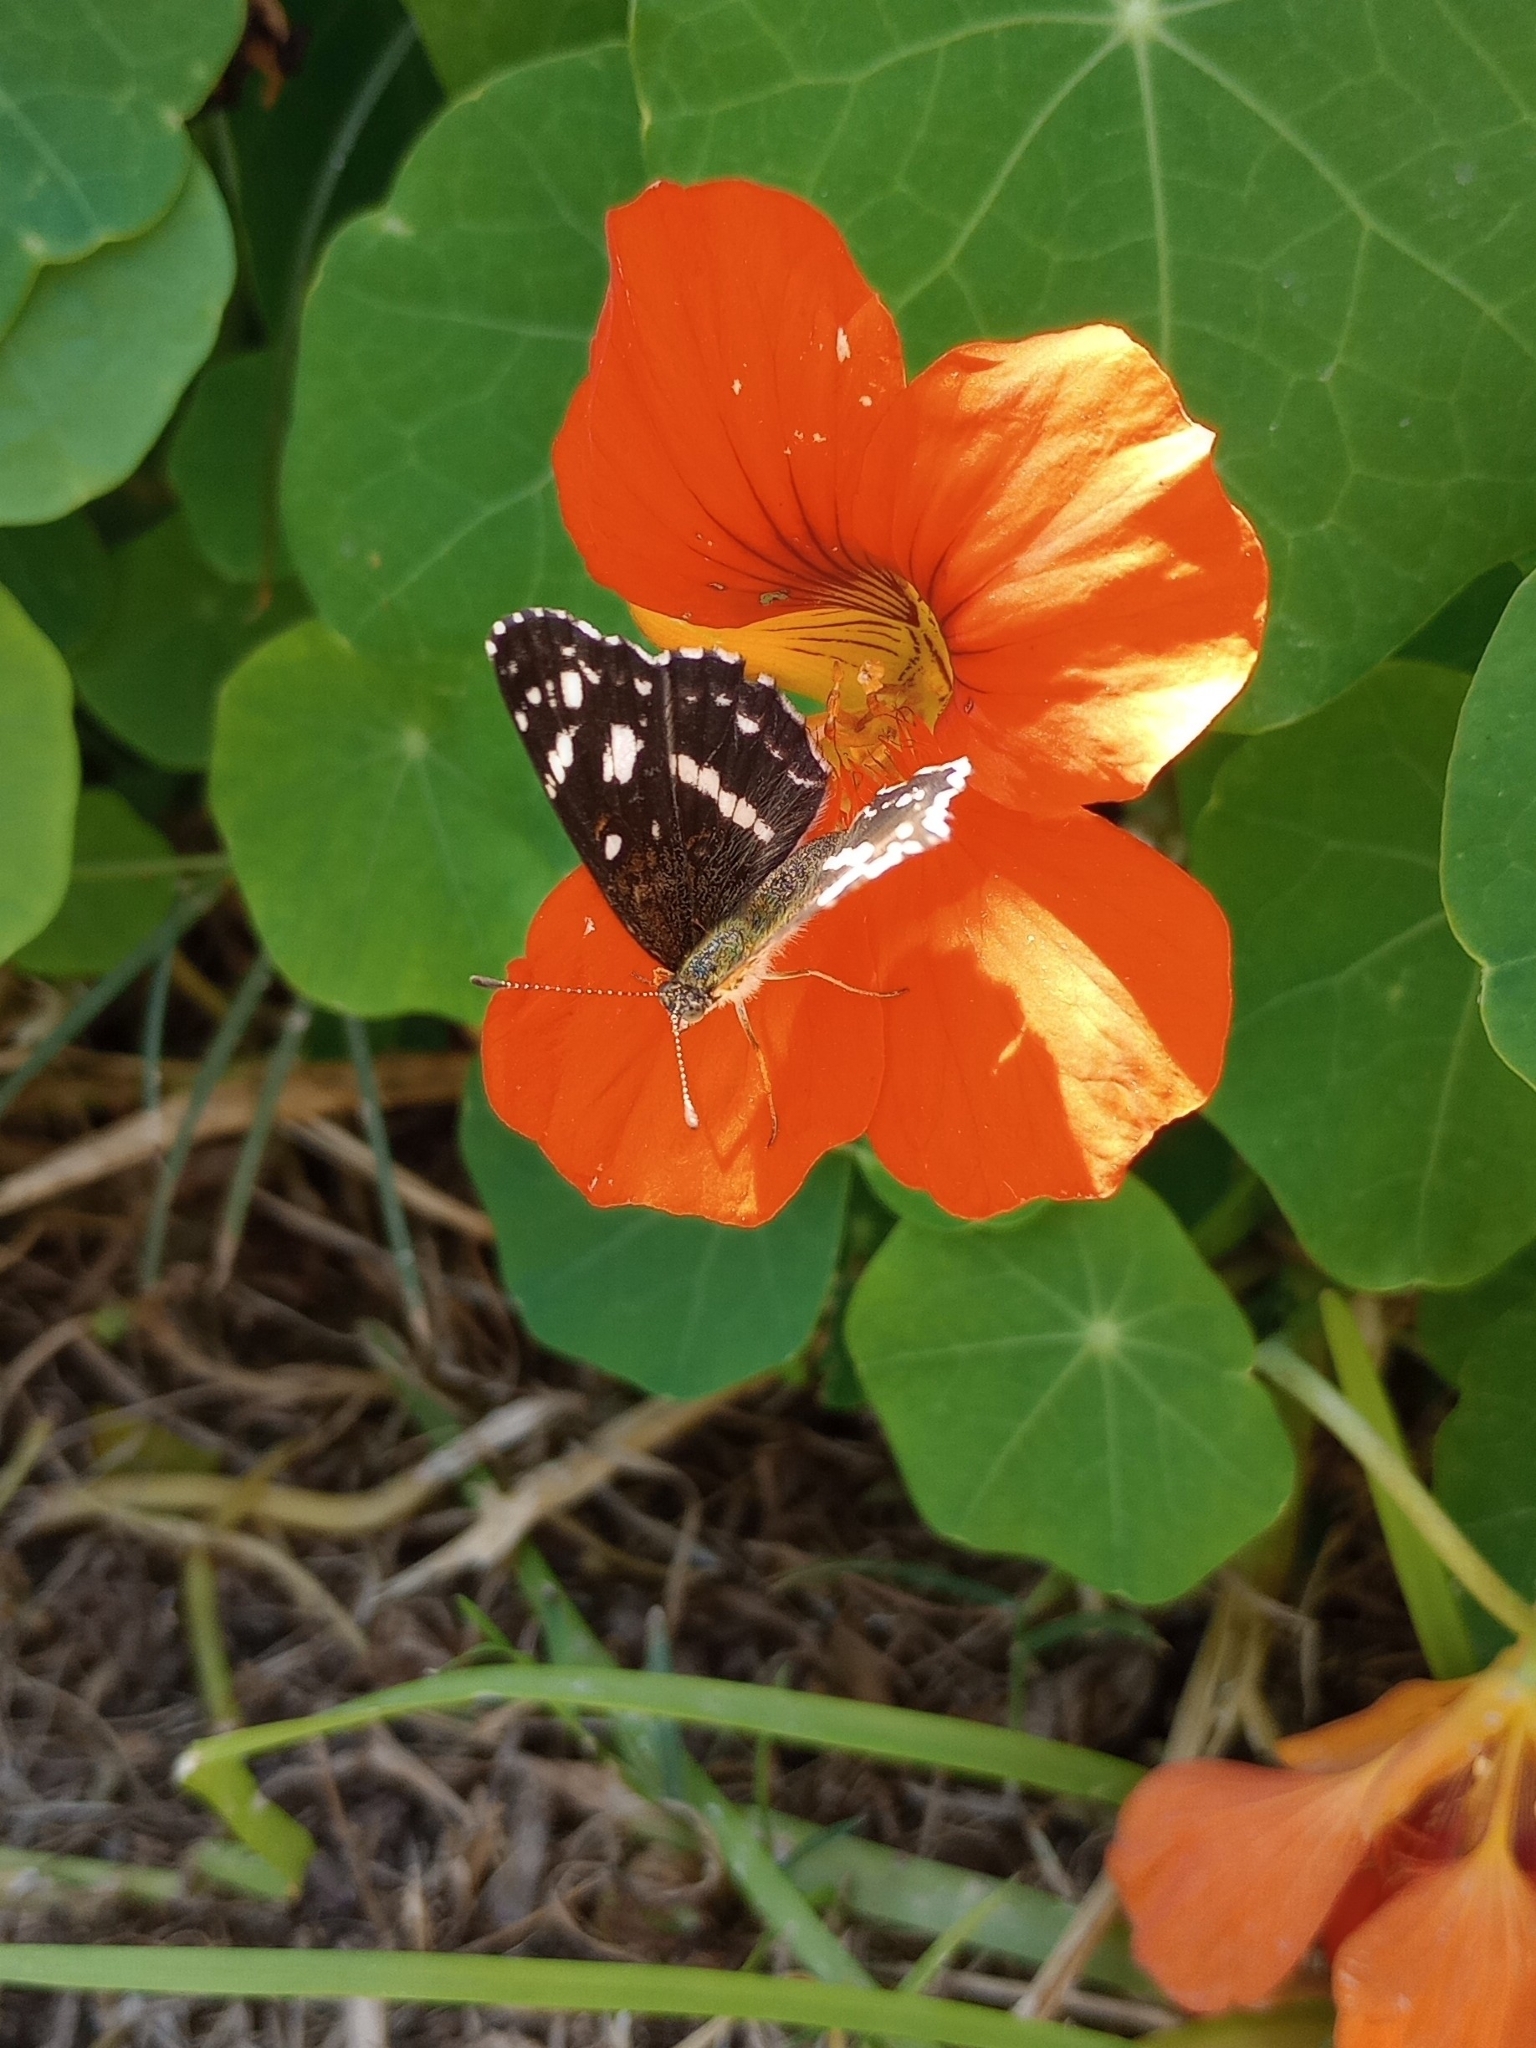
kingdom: Animalia
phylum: Arthropoda
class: Insecta
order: Lepidoptera
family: Nymphalidae
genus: Ortilia
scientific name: Ortilia ithra
